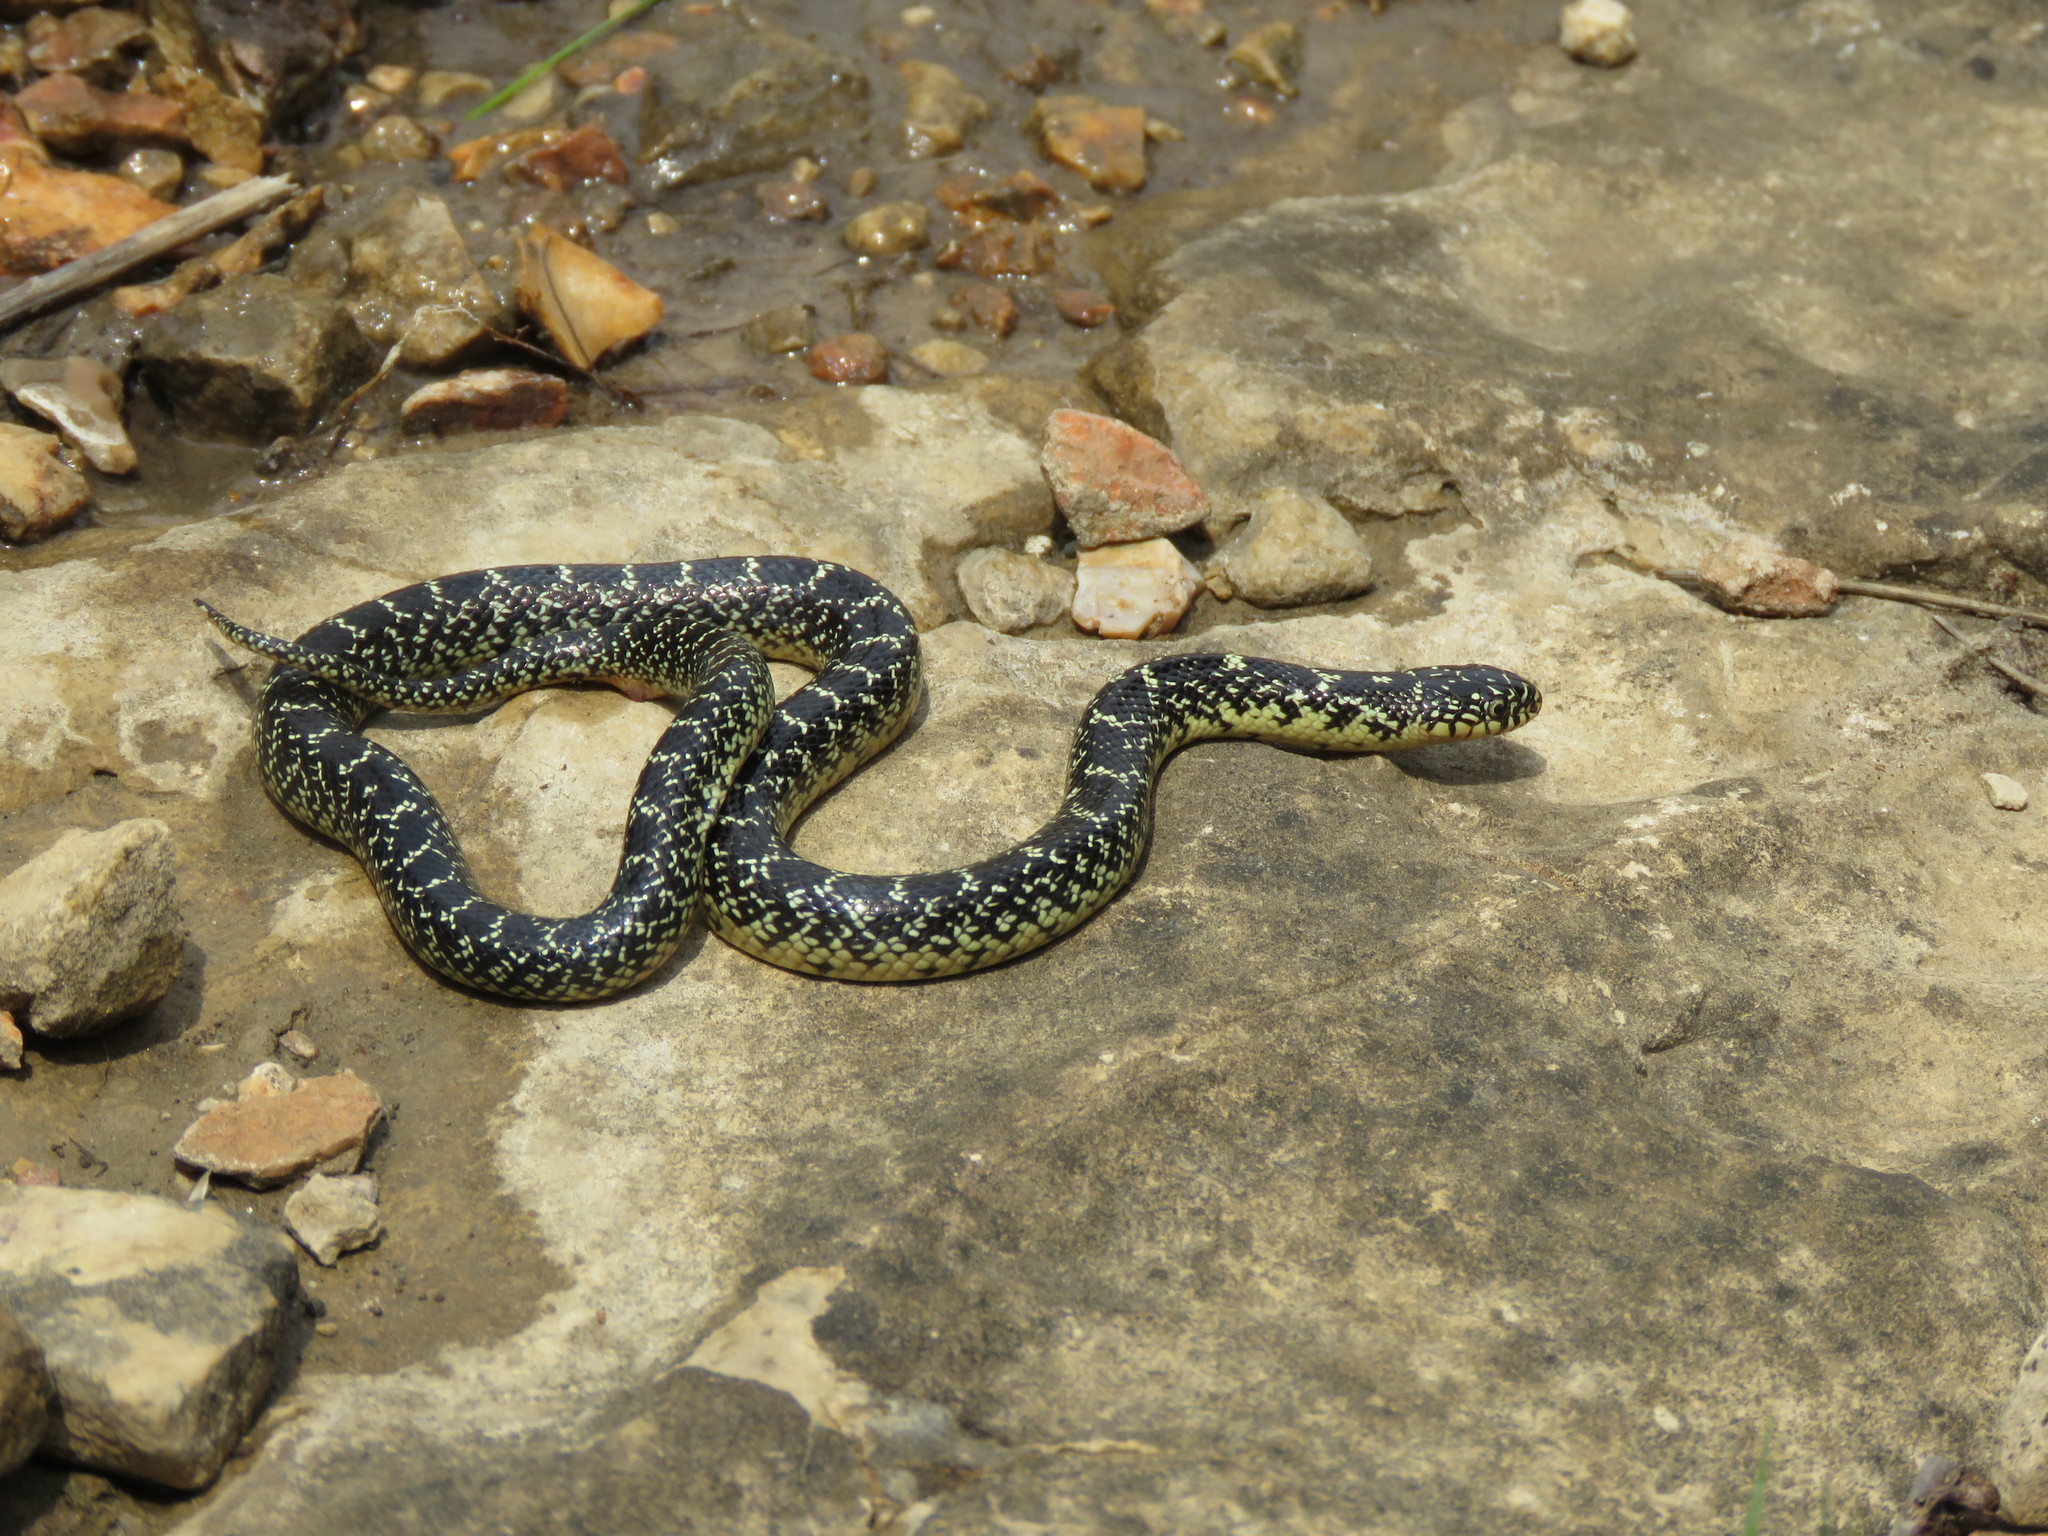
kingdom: Animalia
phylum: Chordata
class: Squamata
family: Colubridae
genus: Lampropeltis
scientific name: Lampropeltis holbrooki
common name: Speckled kingsnake
